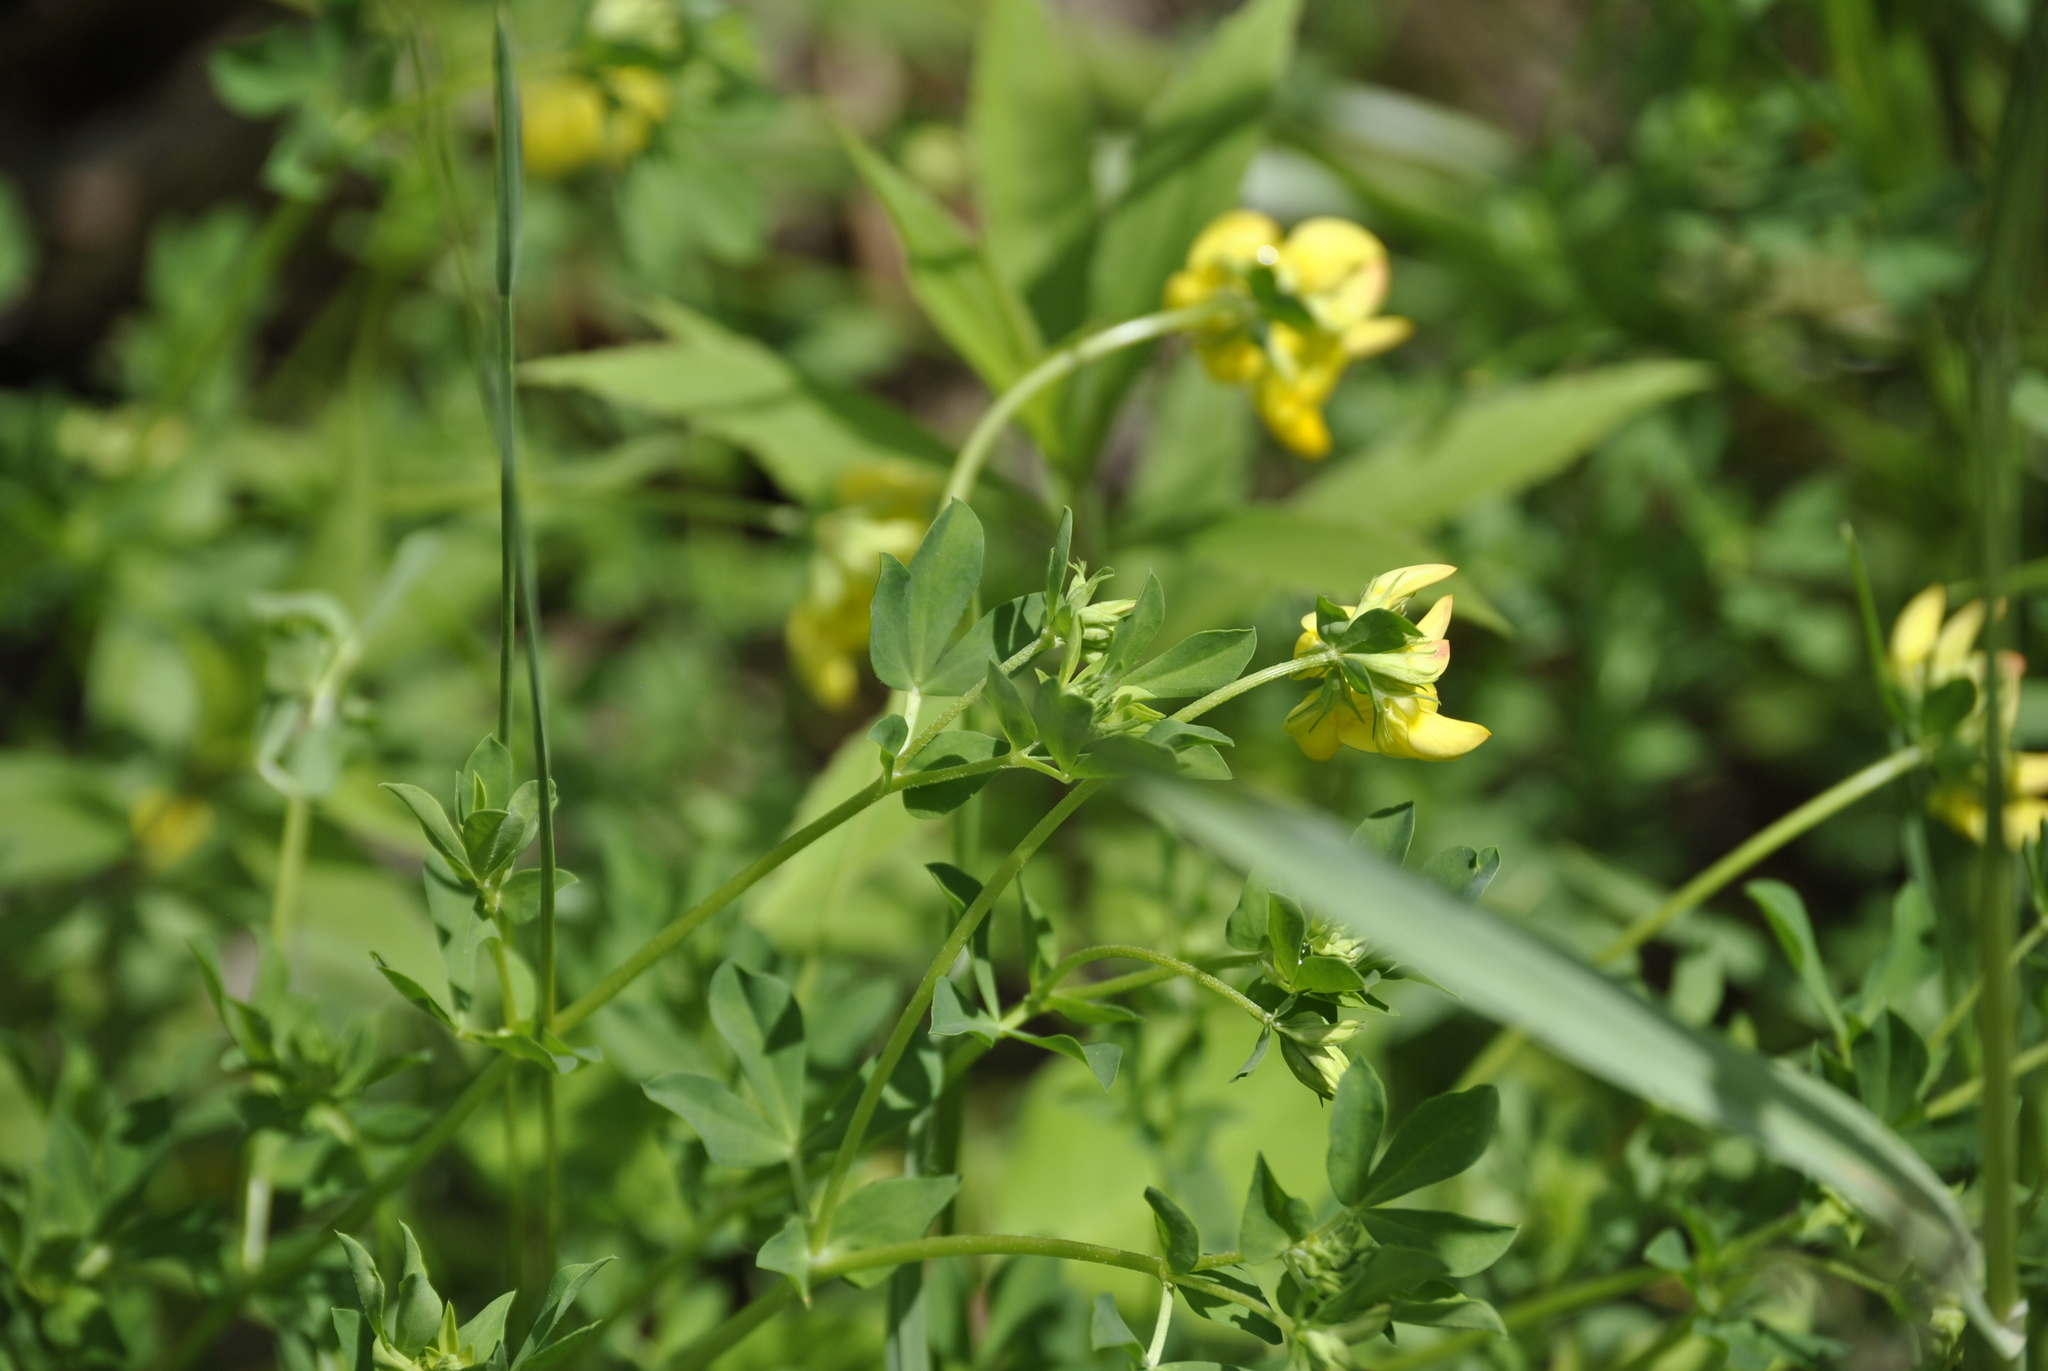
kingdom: Plantae
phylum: Tracheophyta
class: Magnoliopsida
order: Fabales
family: Fabaceae
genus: Baptisia
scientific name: Baptisia tinctoria
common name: Wild indigo
